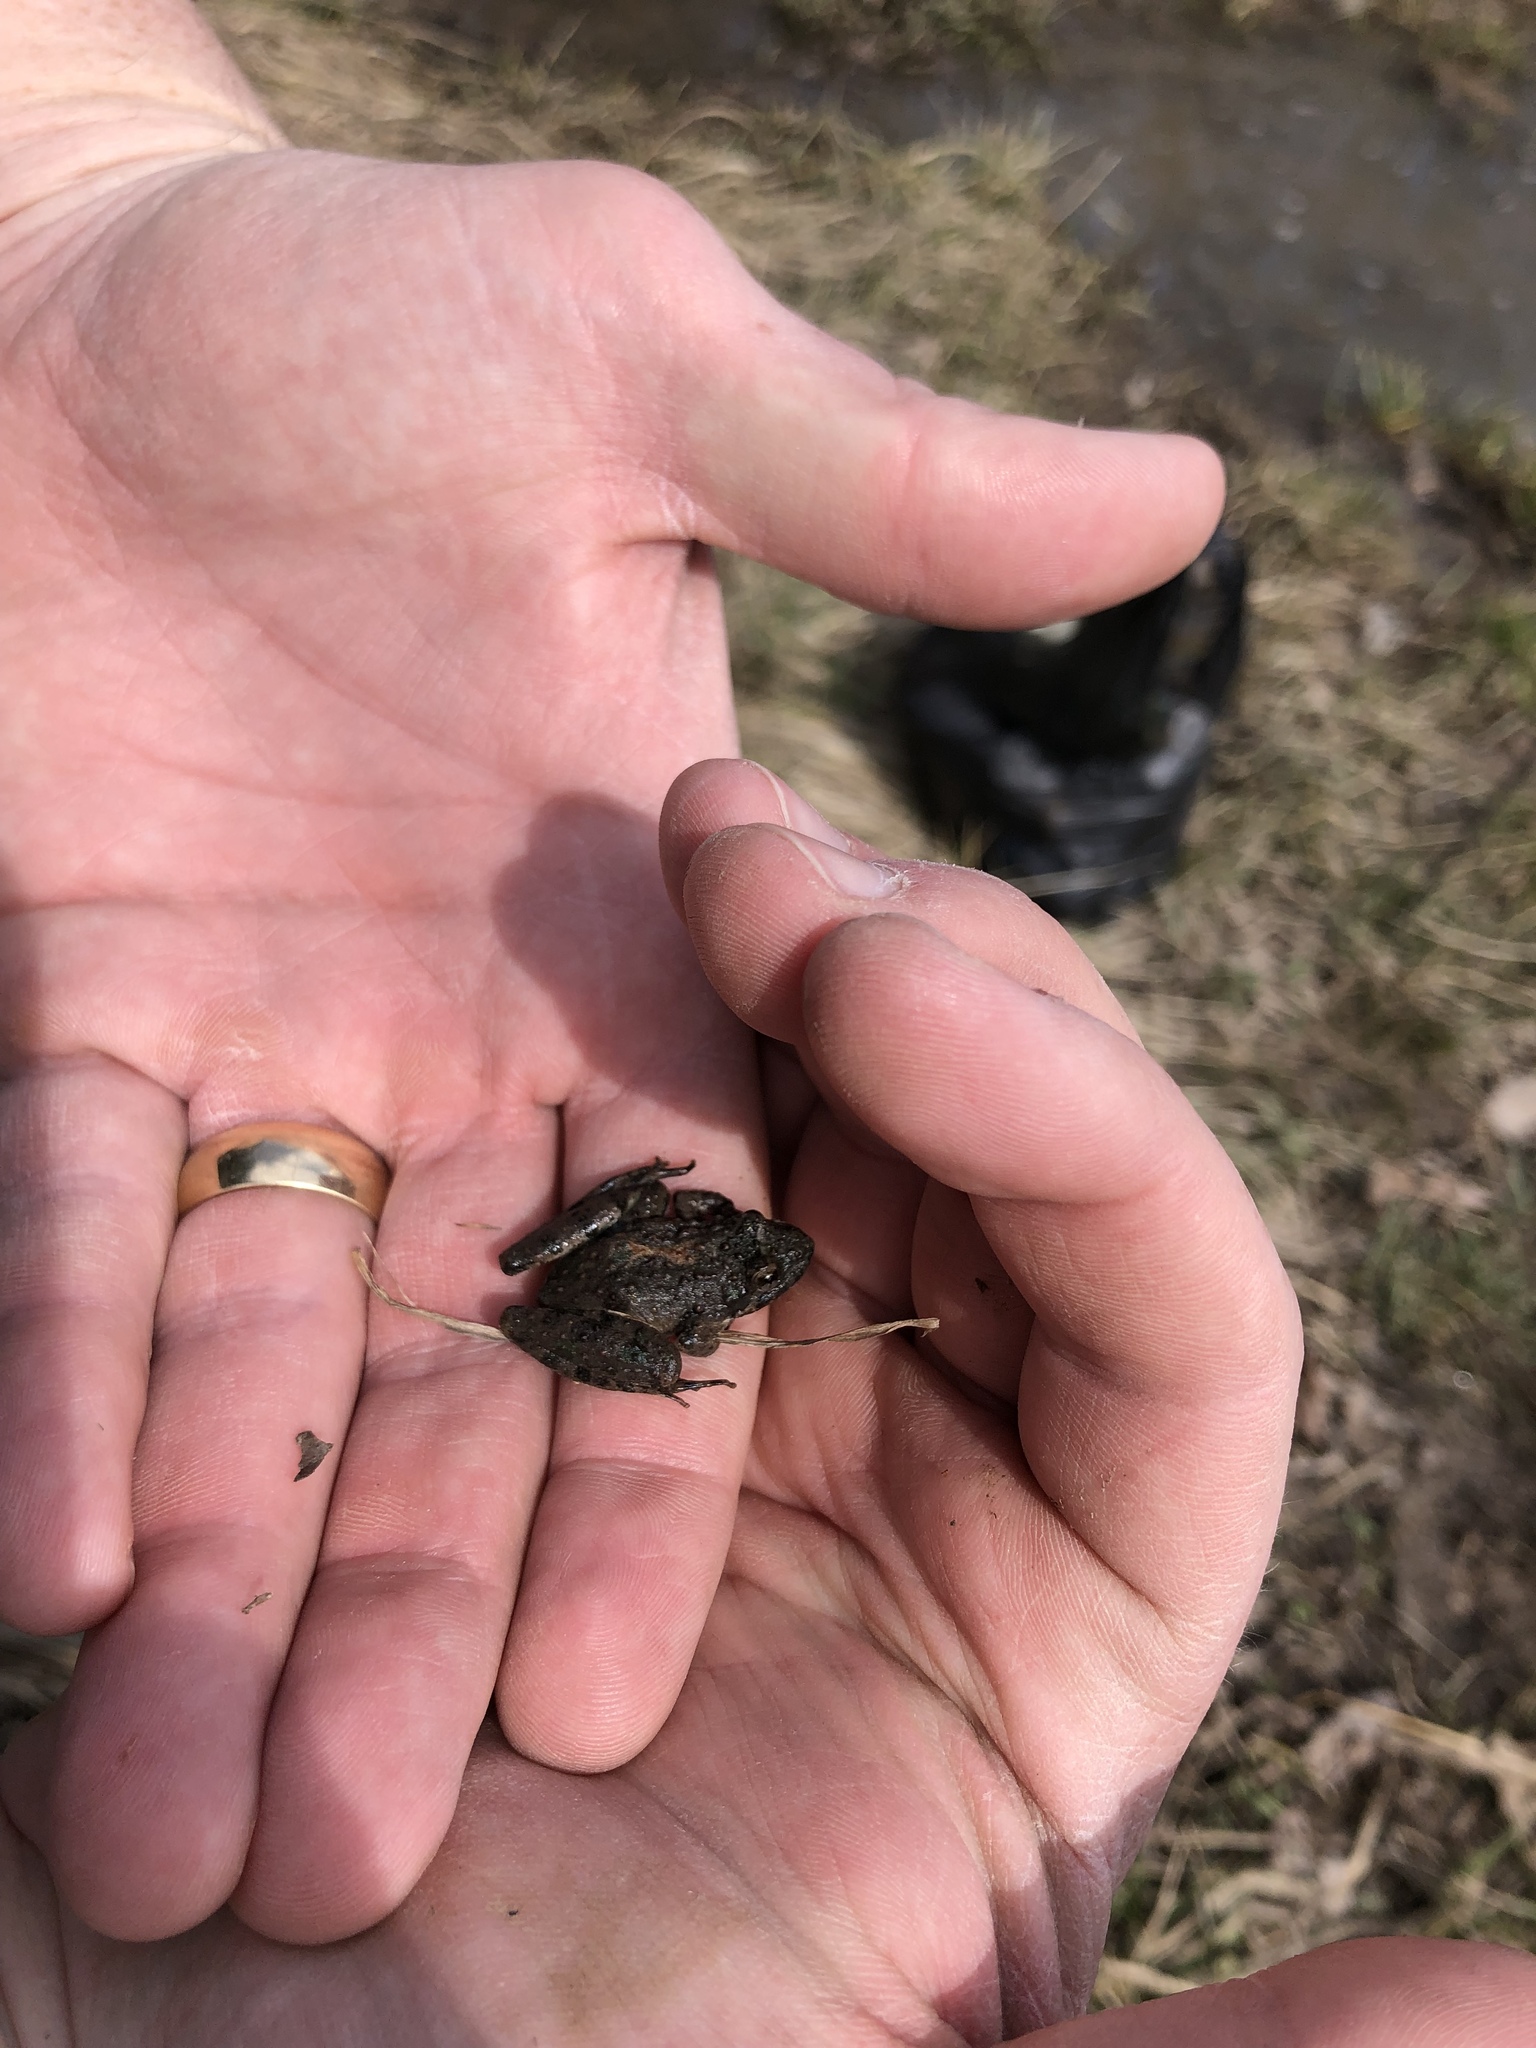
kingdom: Animalia
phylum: Chordata
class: Amphibia
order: Anura
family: Hylidae
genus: Acris
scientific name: Acris blanchardi
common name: Blanchard's cricket frog
